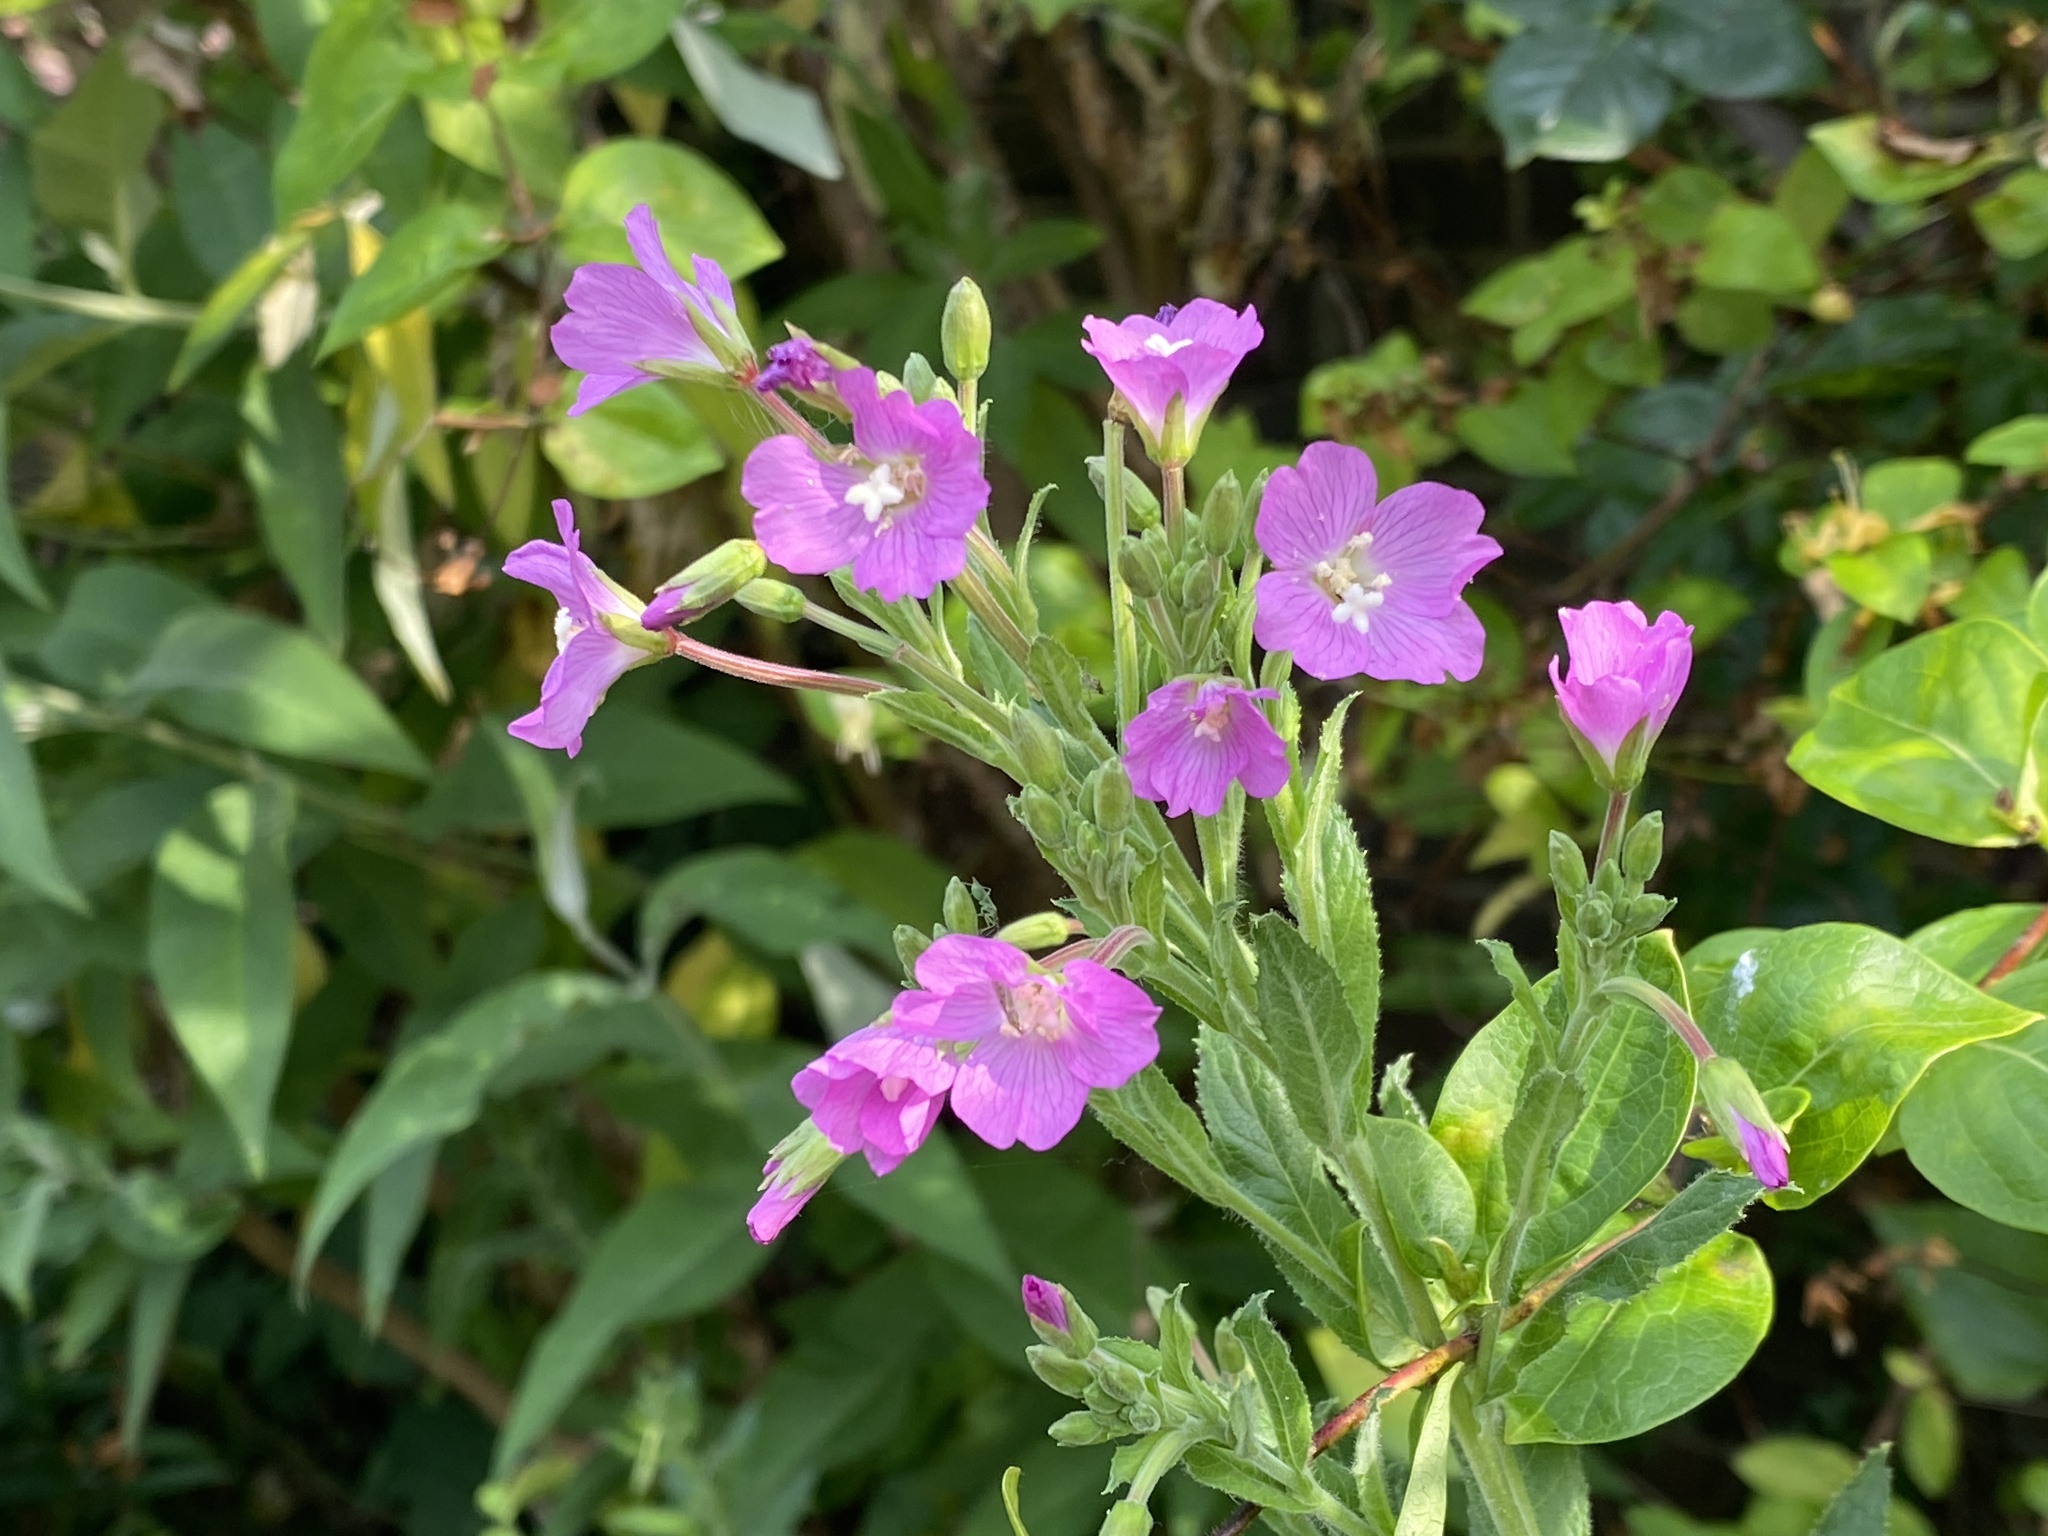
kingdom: Plantae
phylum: Tracheophyta
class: Magnoliopsida
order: Myrtales
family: Onagraceae
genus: Epilobium
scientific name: Epilobium hirsutum
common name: Great willowherb
